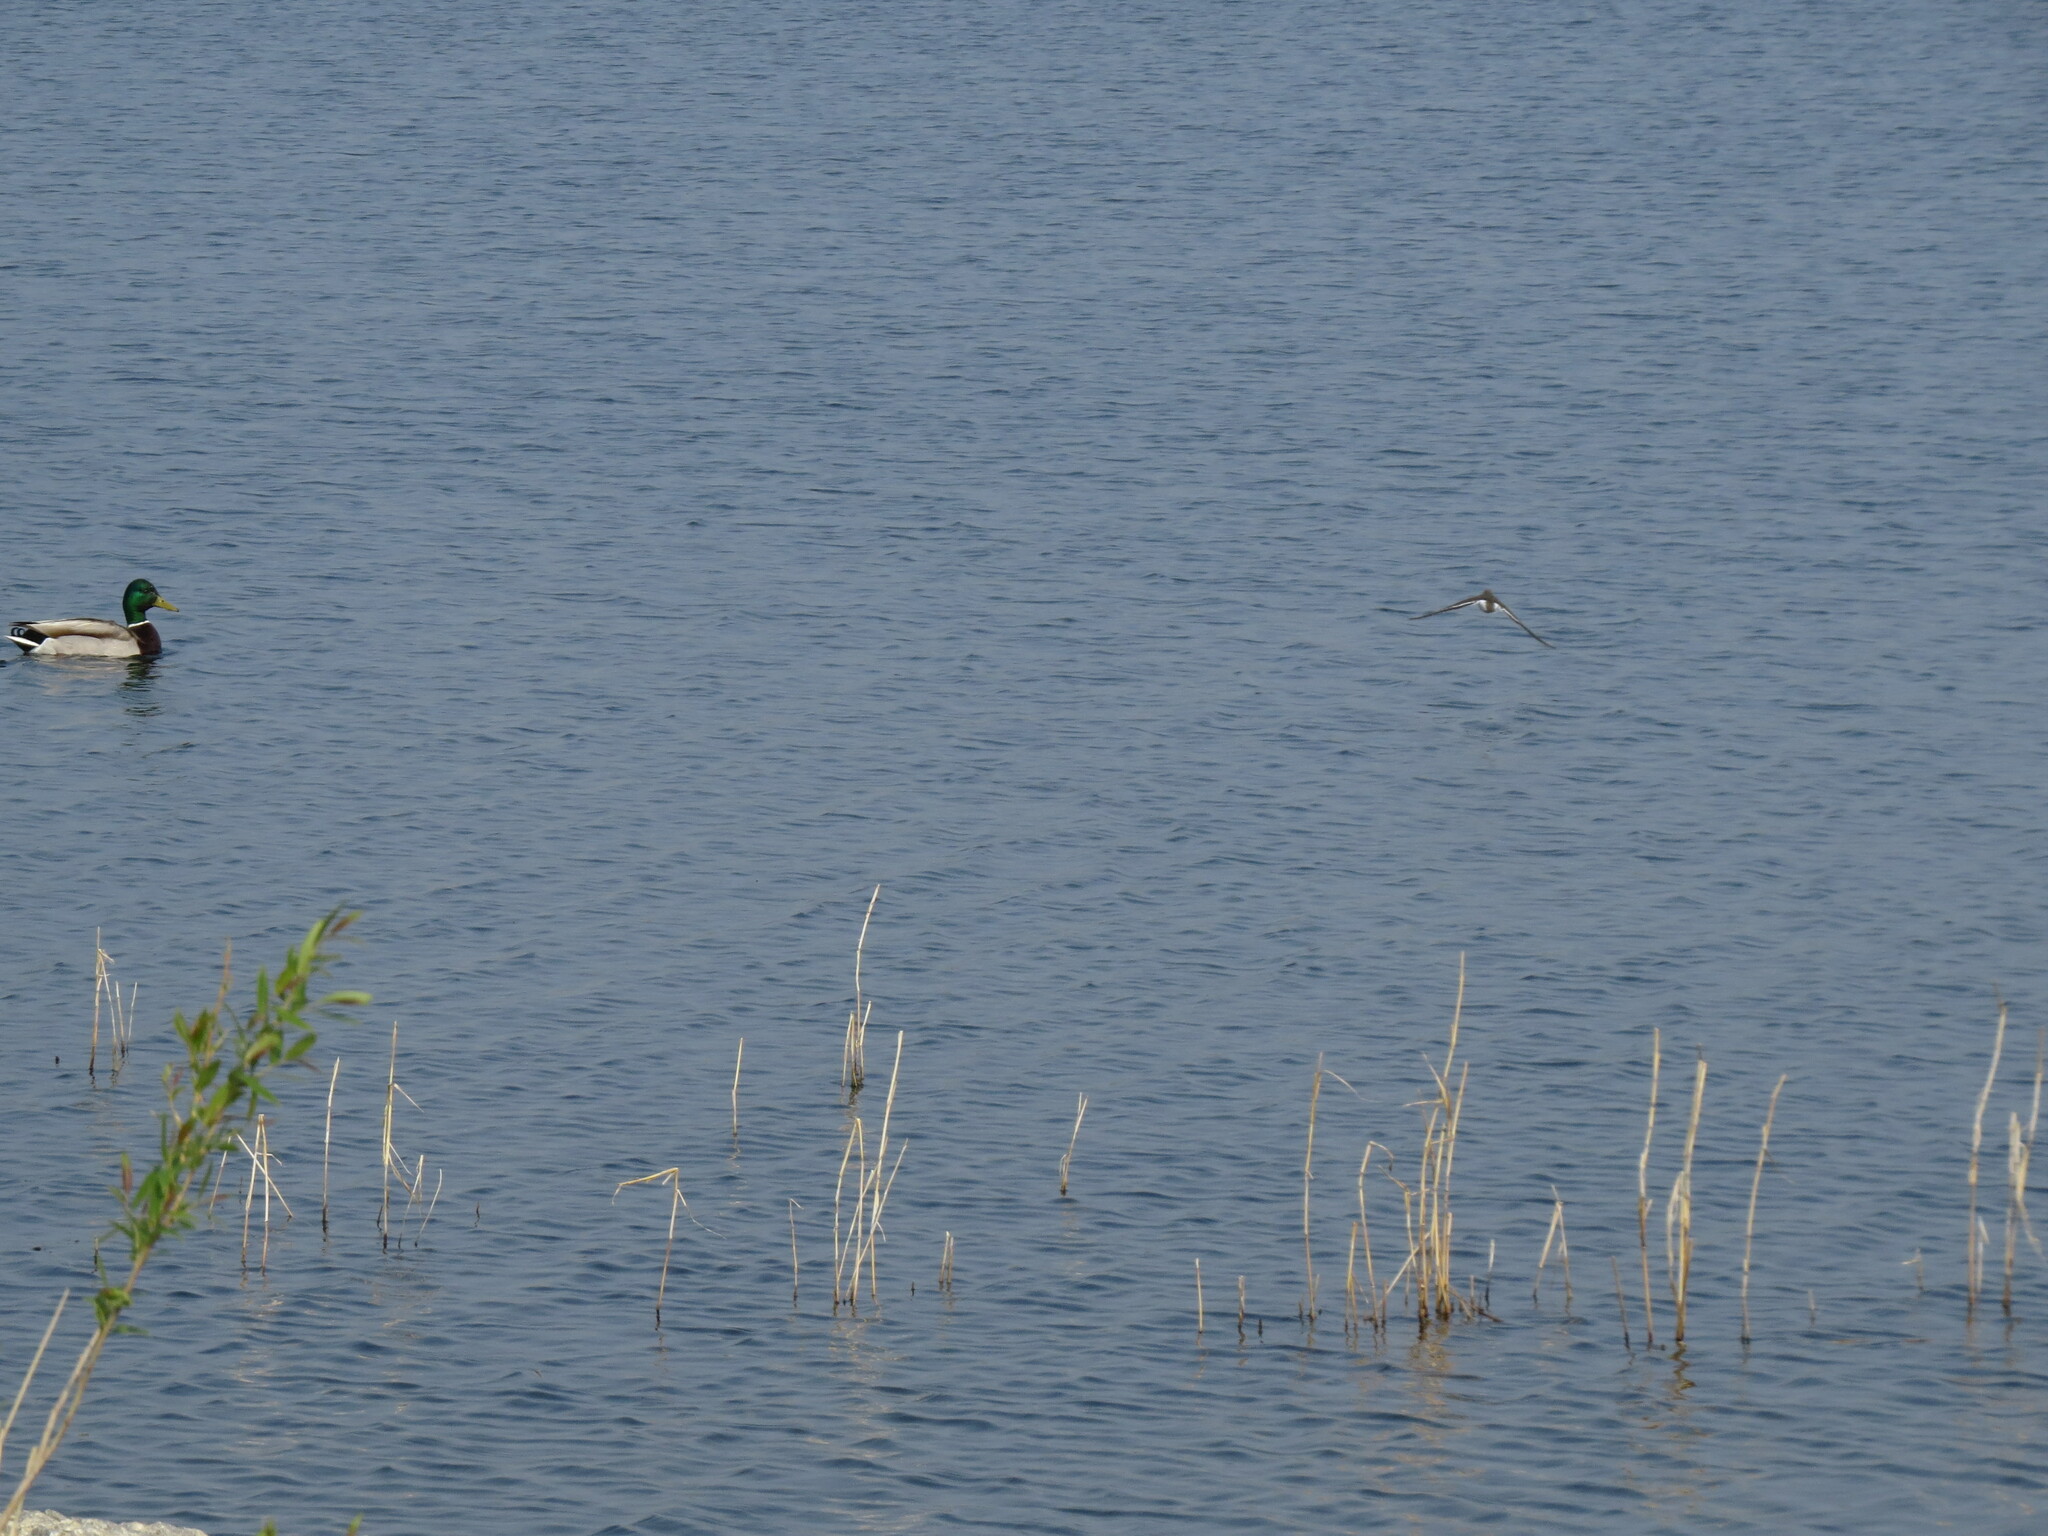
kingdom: Animalia
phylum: Chordata
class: Aves
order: Anseriformes
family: Anatidae
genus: Anas
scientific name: Anas platyrhynchos
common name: Mallard
